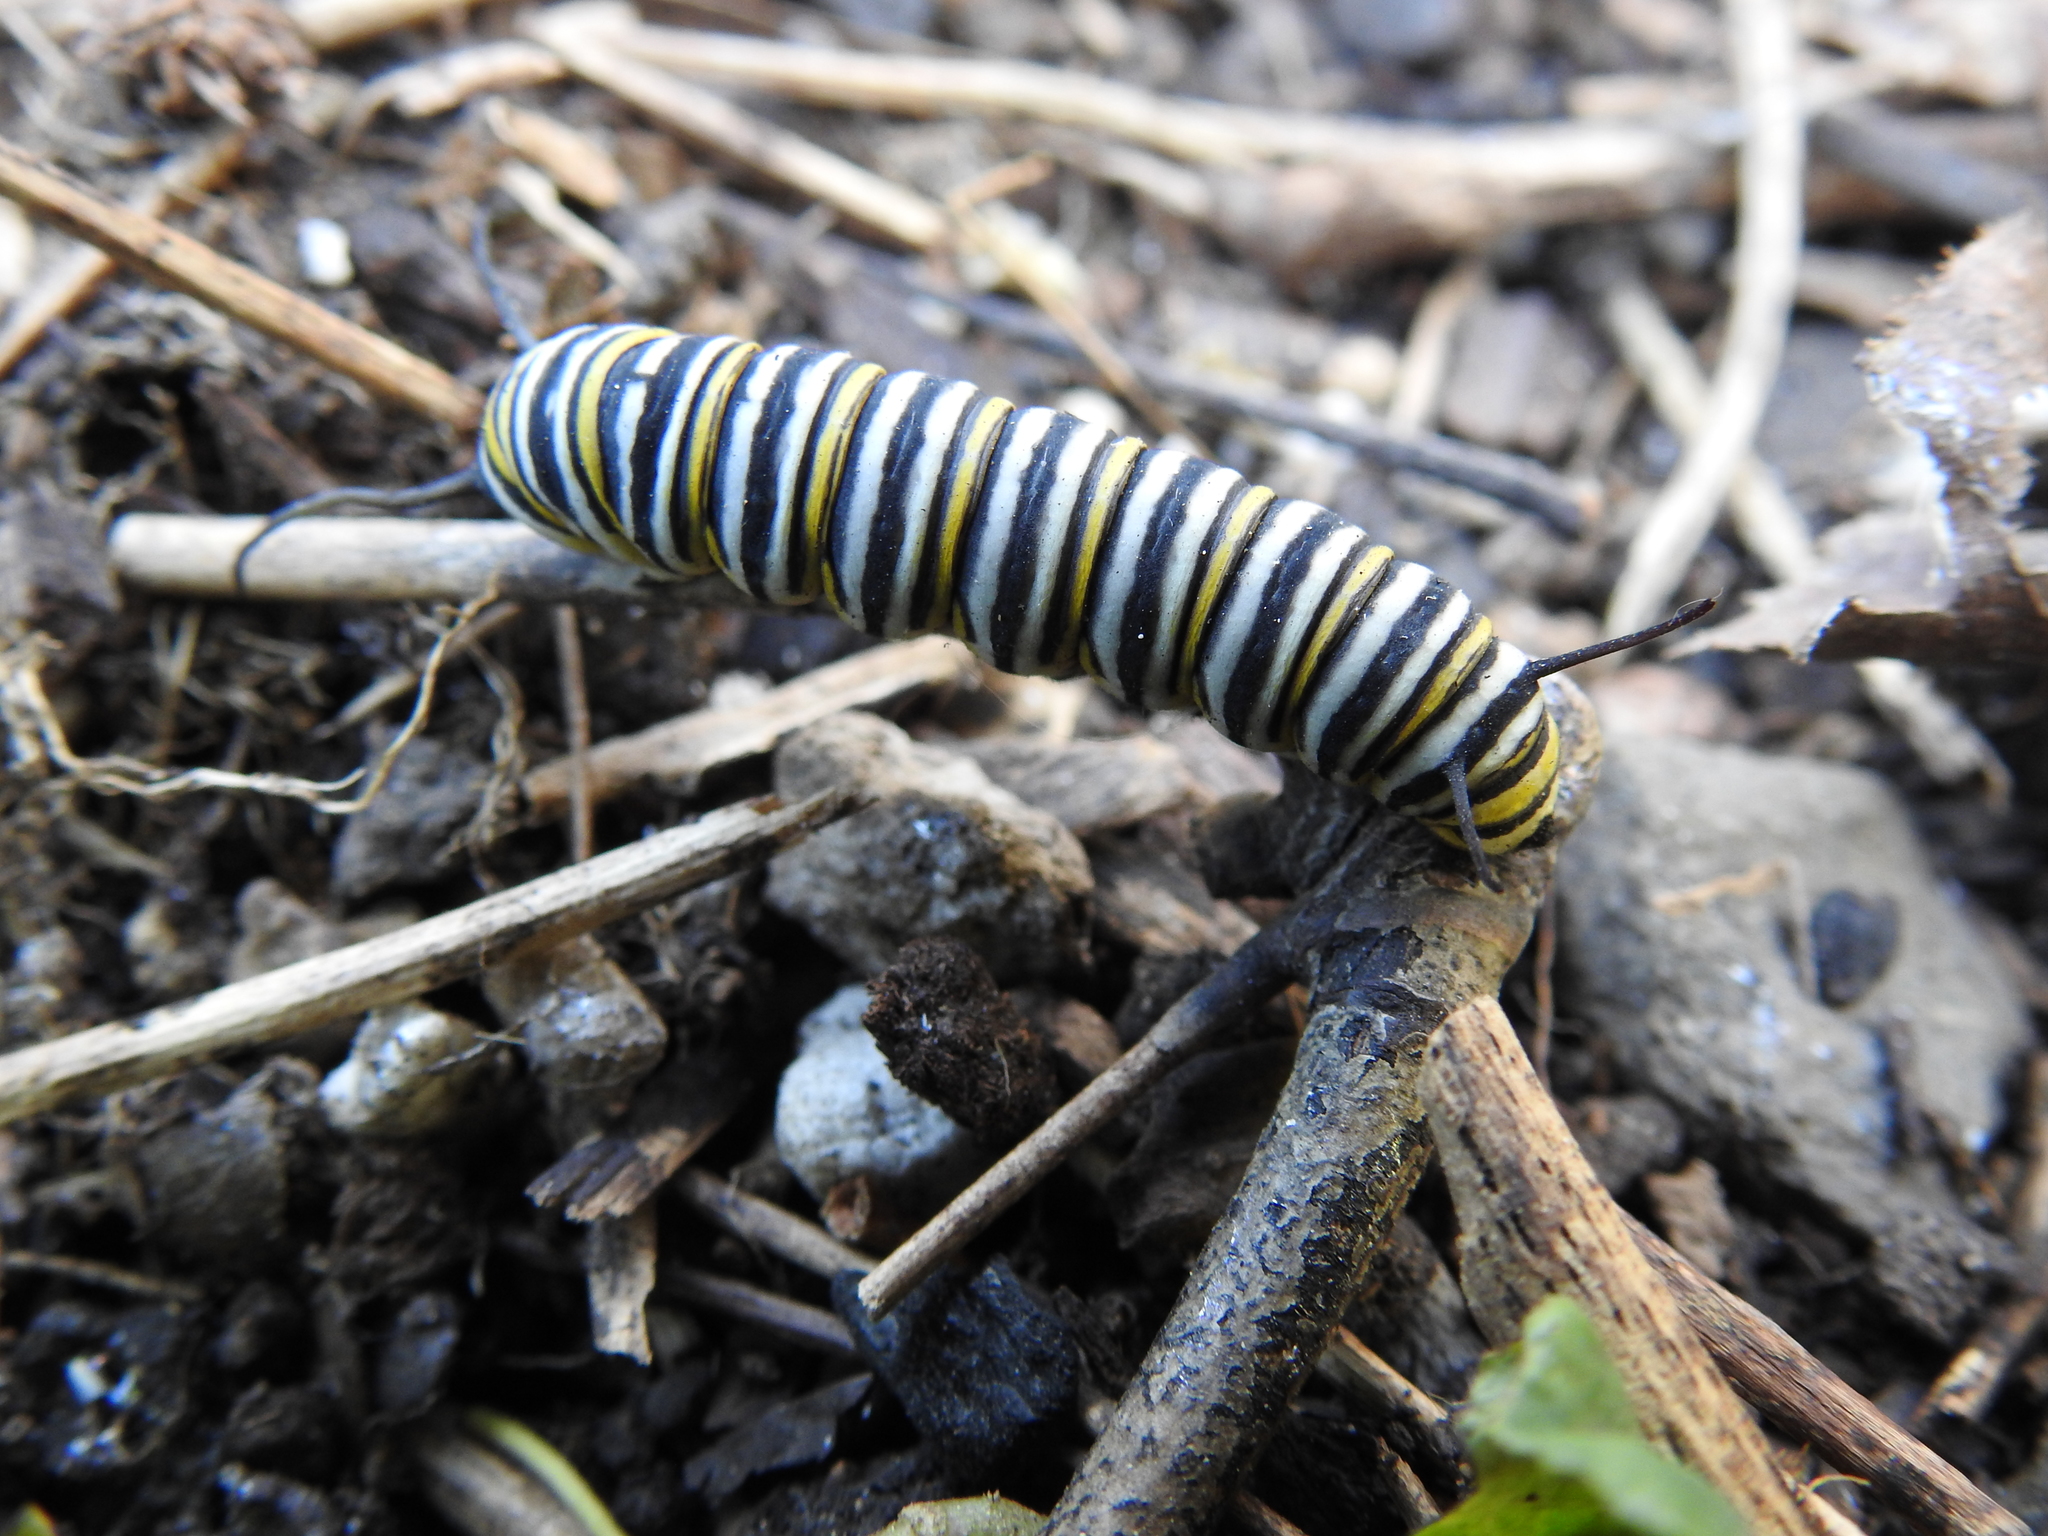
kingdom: Animalia
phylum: Arthropoda
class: Insecta
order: Lepidoptera
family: Nymphalidae
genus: Danaus
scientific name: Danaus plexippus
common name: Monarch
